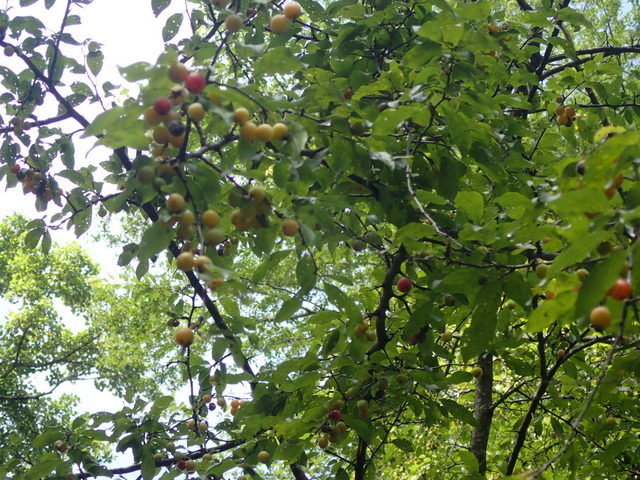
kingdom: Plantae
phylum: Tracheophyta
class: Magnoliopsida
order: Rosales
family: Rosaceae
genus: Prunus
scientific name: Prunus angustifolia
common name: Cherokee plum
